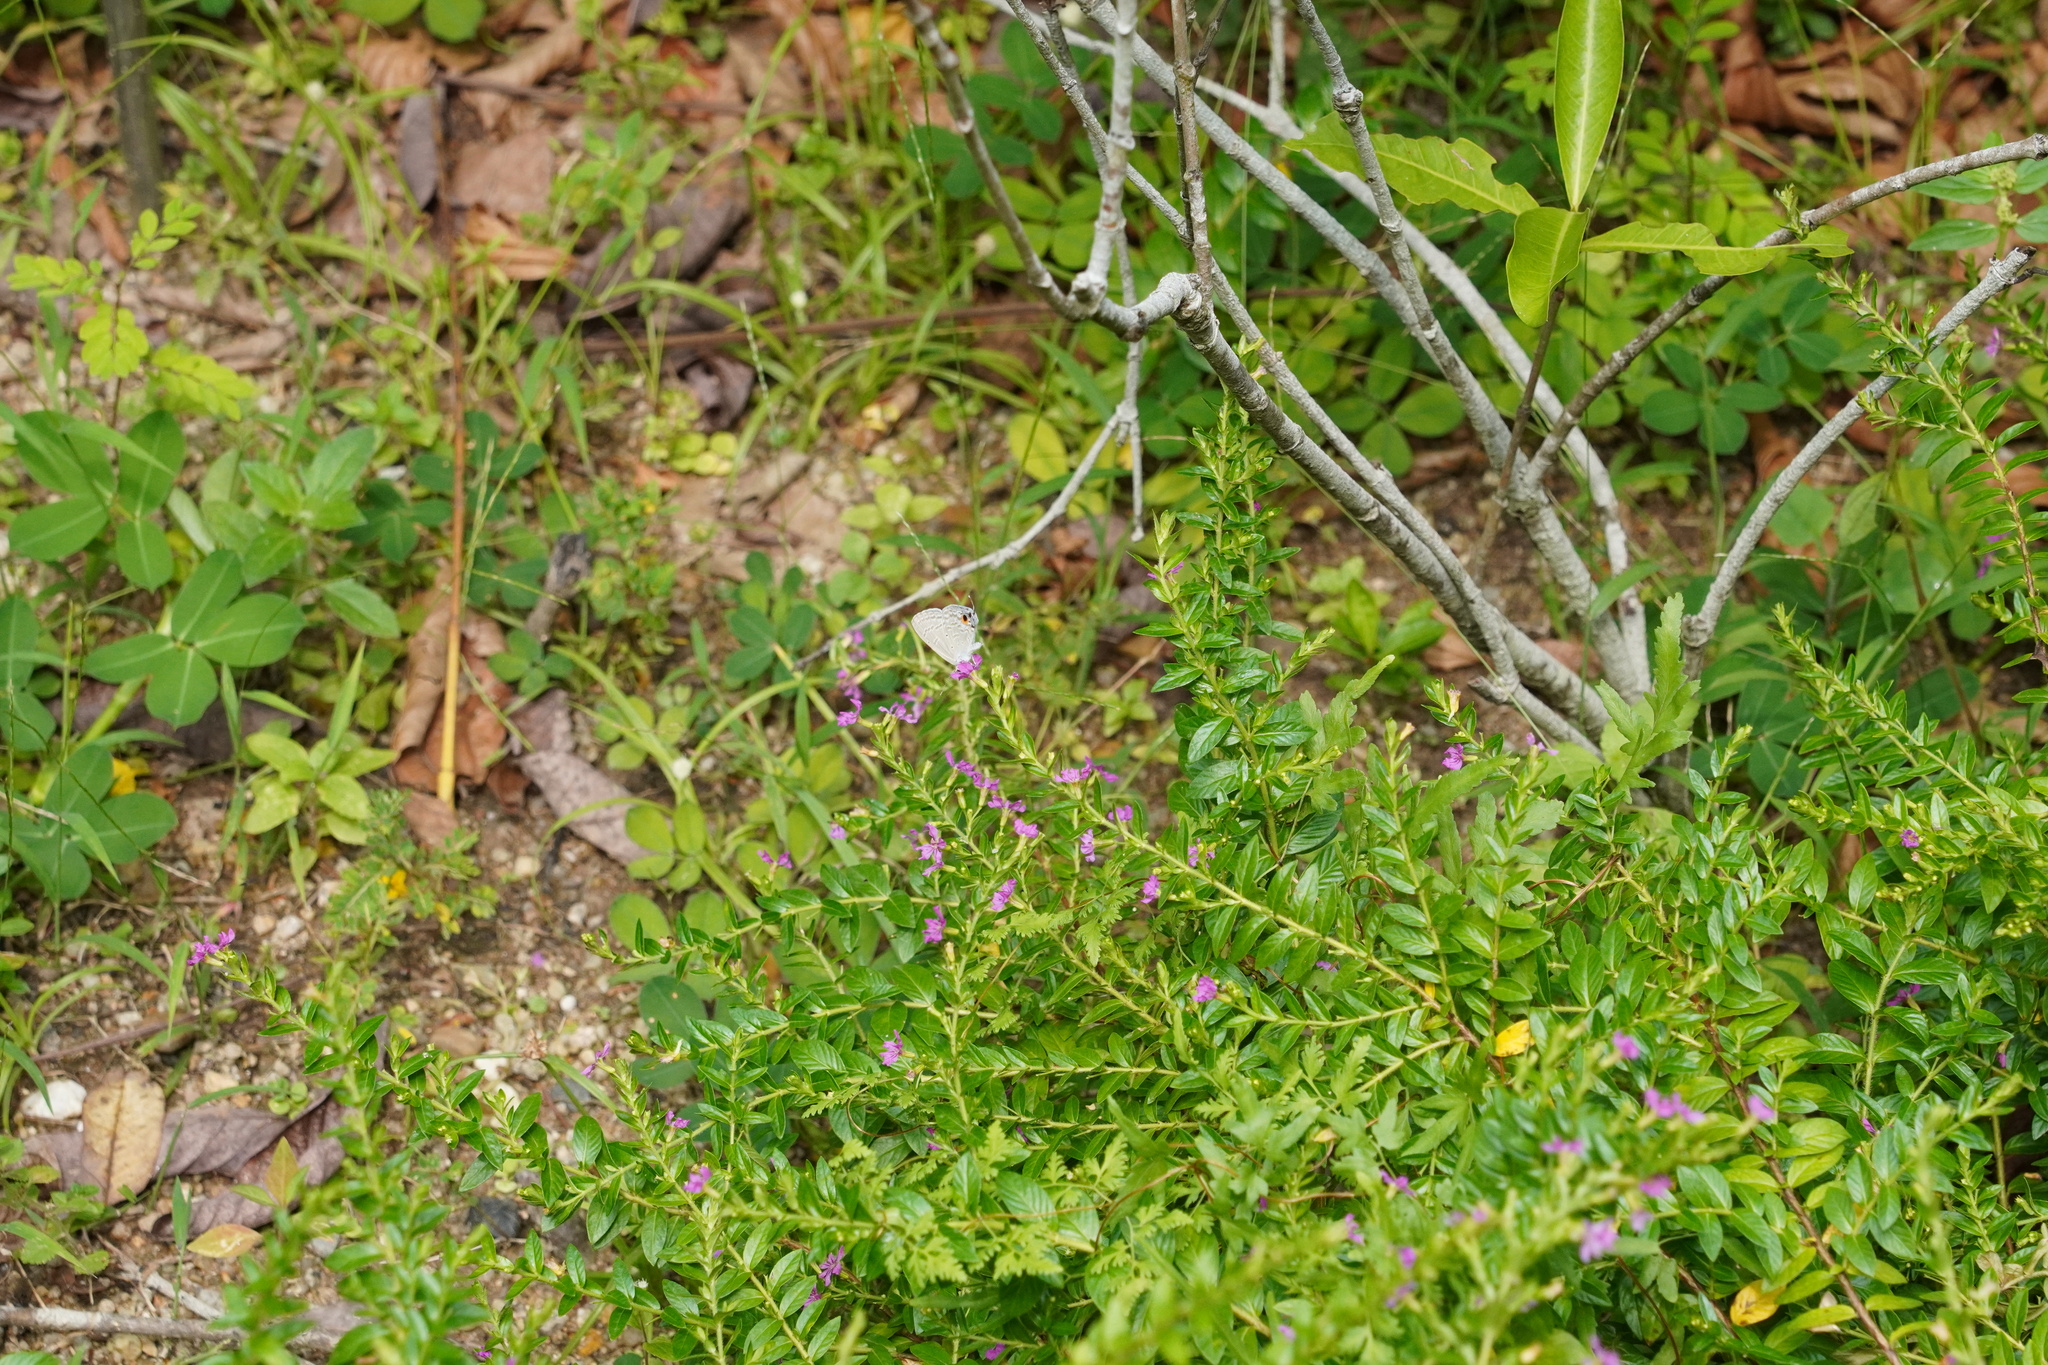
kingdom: Animalia
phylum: Arthropoda
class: Insecta
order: Lepidoptera
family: Lycaenidae
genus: Catochrysops
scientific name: Catochrysops strabo
